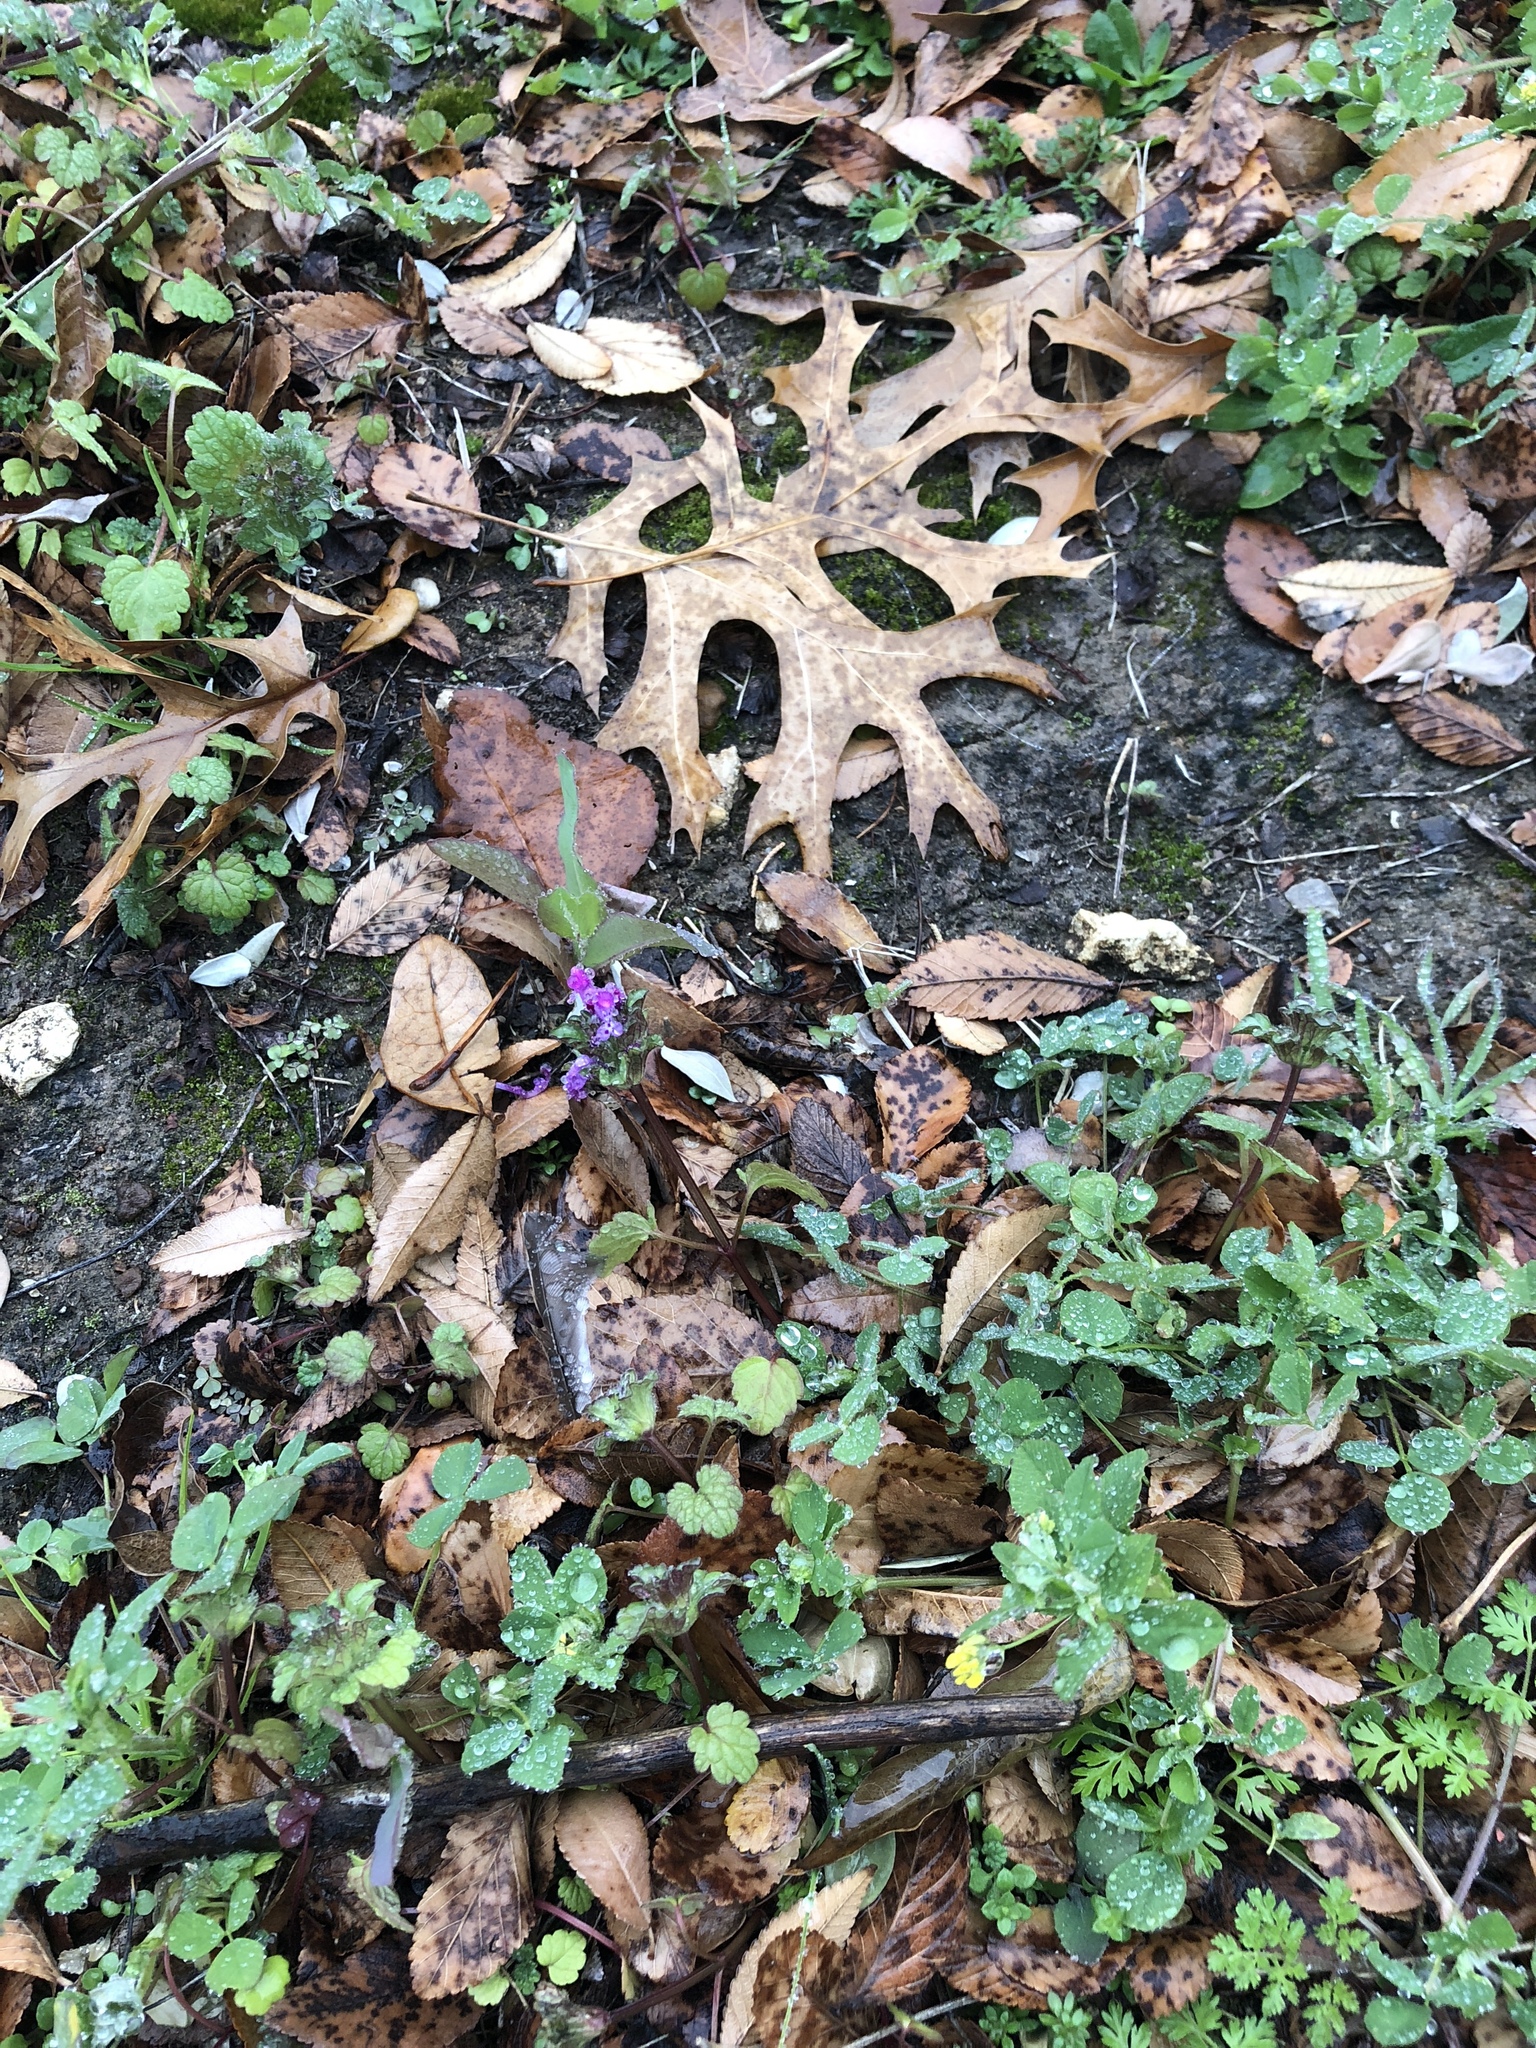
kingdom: Plantae
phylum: Tracheophyta
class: Magnoliopsida
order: Lamiales
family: Lamiaceae
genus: Lamium
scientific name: Lamium amplexicaule
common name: Henbit dead-nettle
